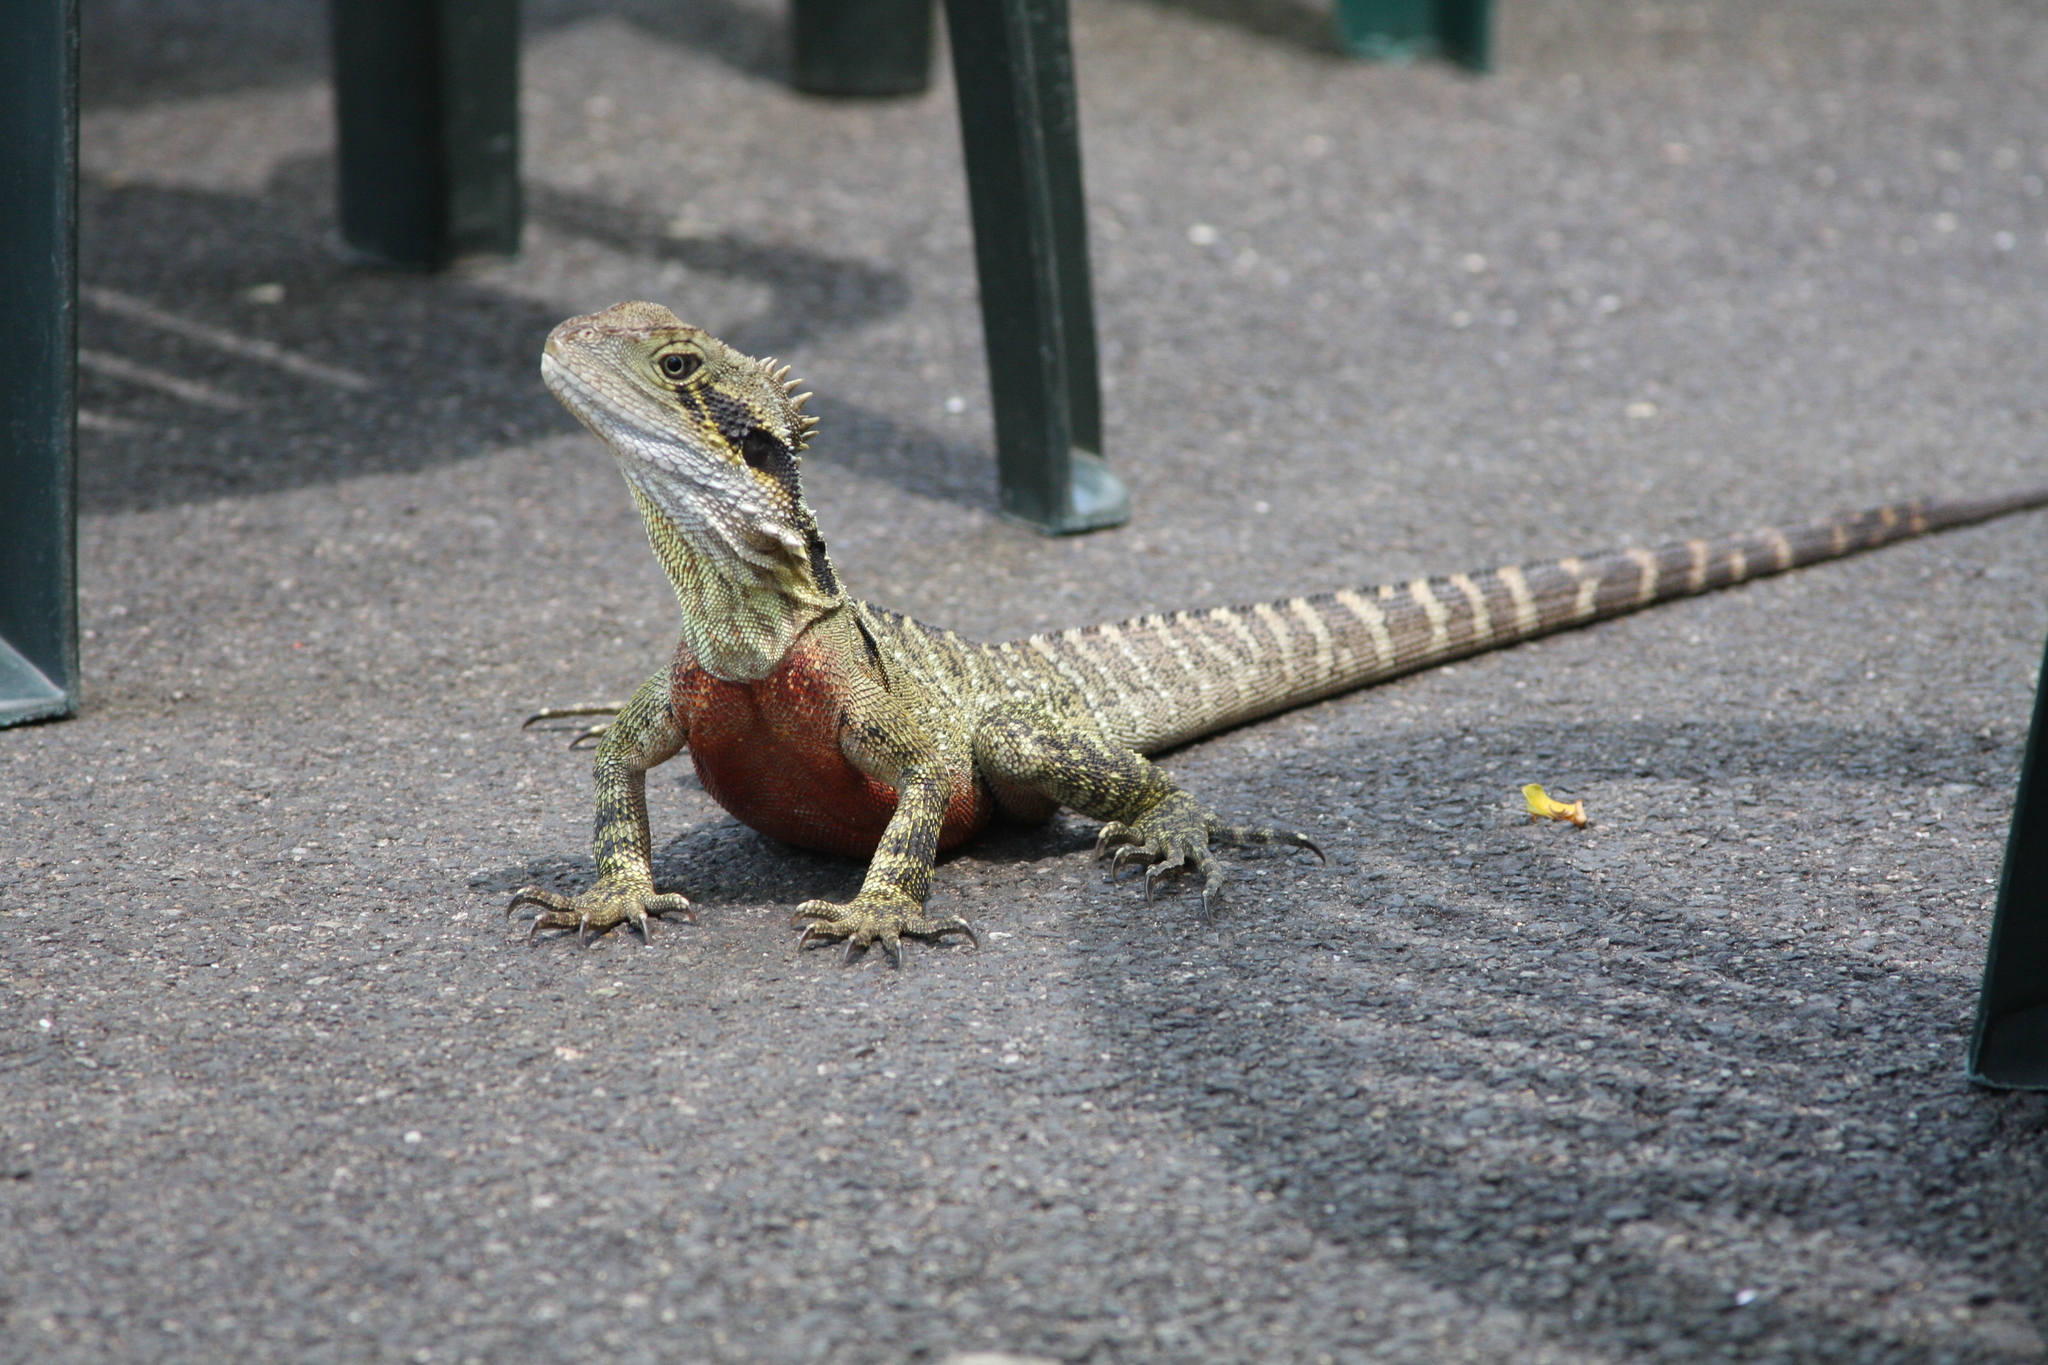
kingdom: Animalia
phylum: Chordata
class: Squamata
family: Agamidae
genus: Intellagama
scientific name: Intellagama lesueurii
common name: Eastern water dragon
